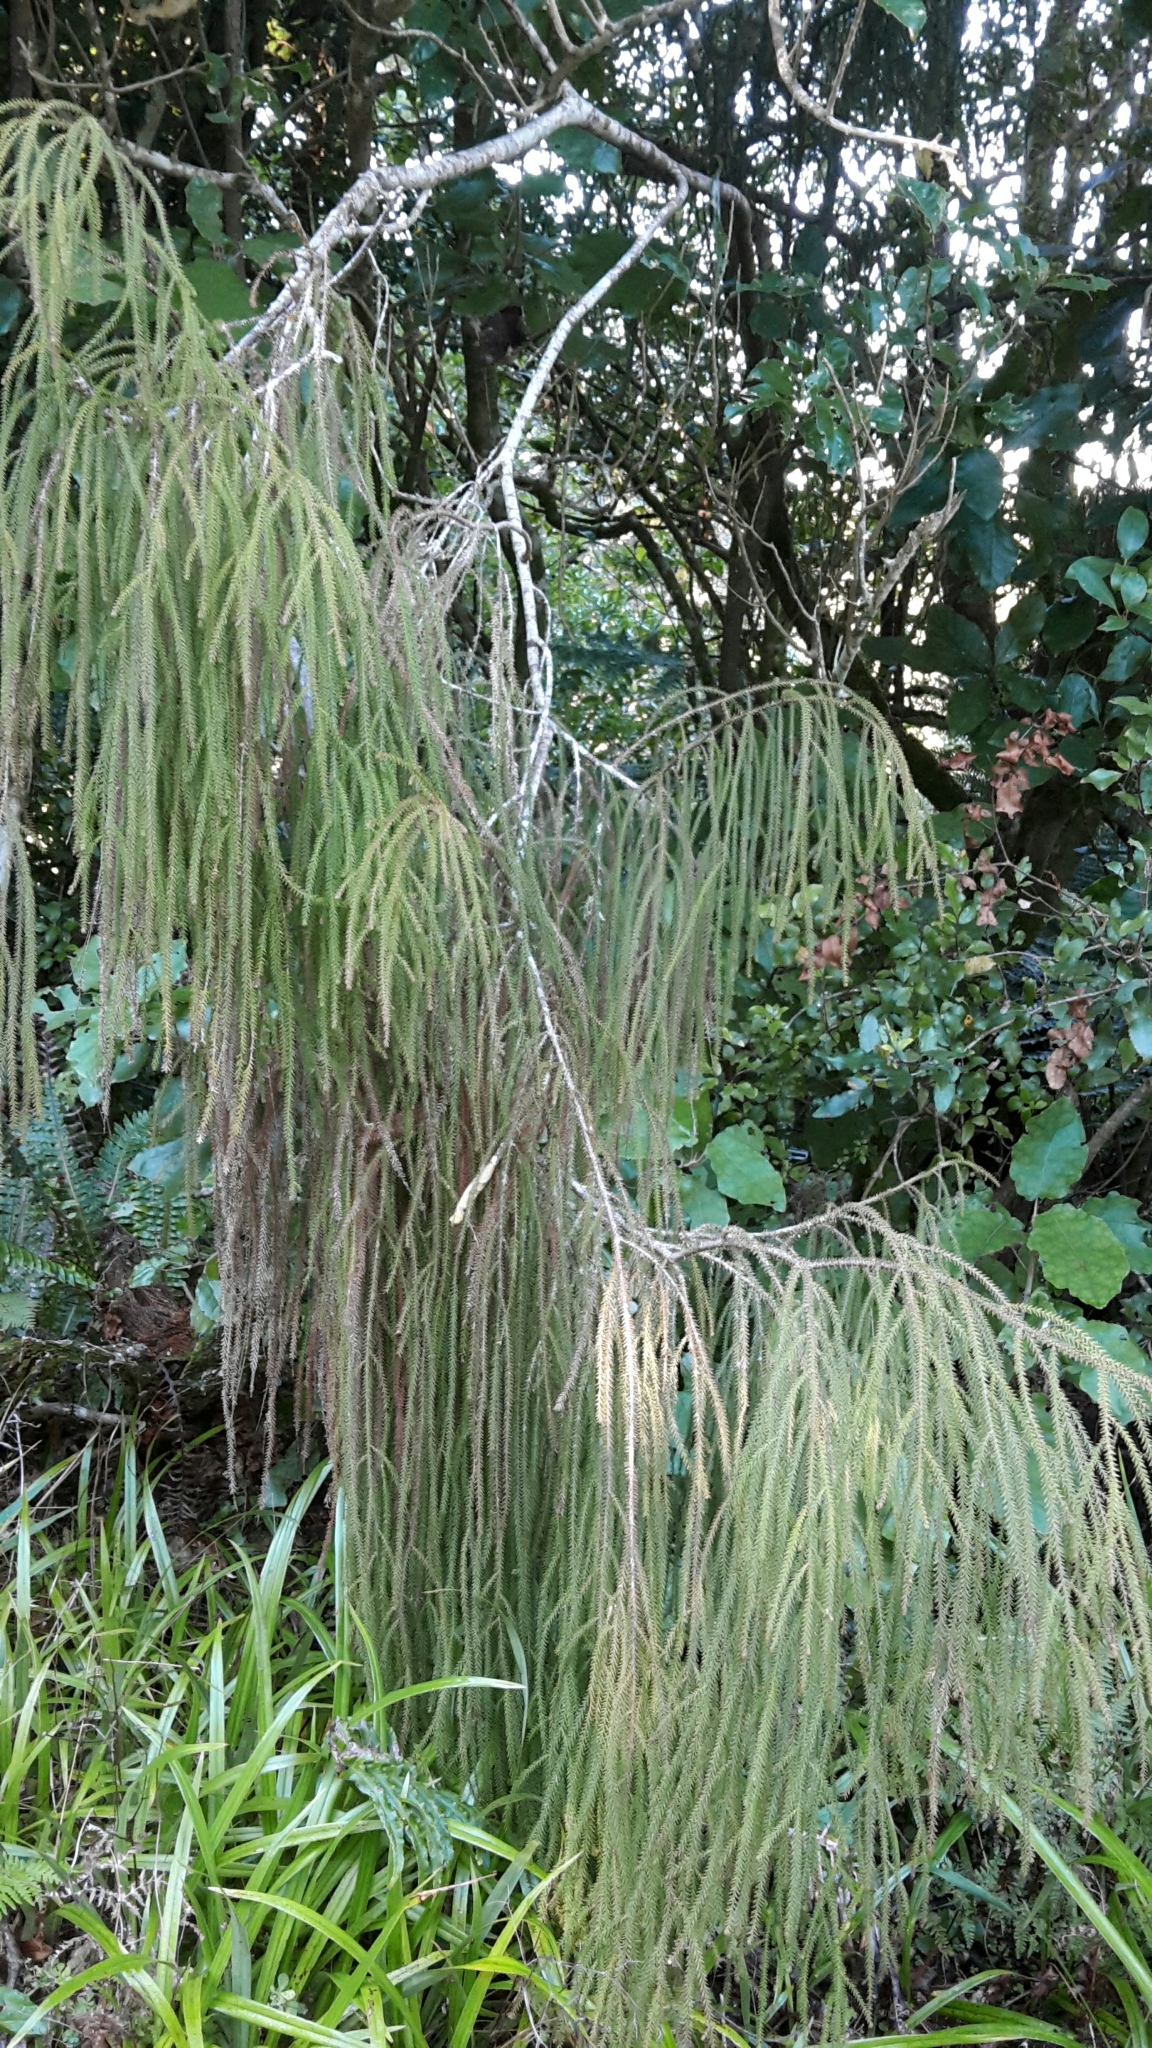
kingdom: Plantae
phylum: Tracheophyta
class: Pinopsida
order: Pinales
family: Podocarpaceae
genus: Dacrydium
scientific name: Dacrydium cupressinum
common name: Red pine
